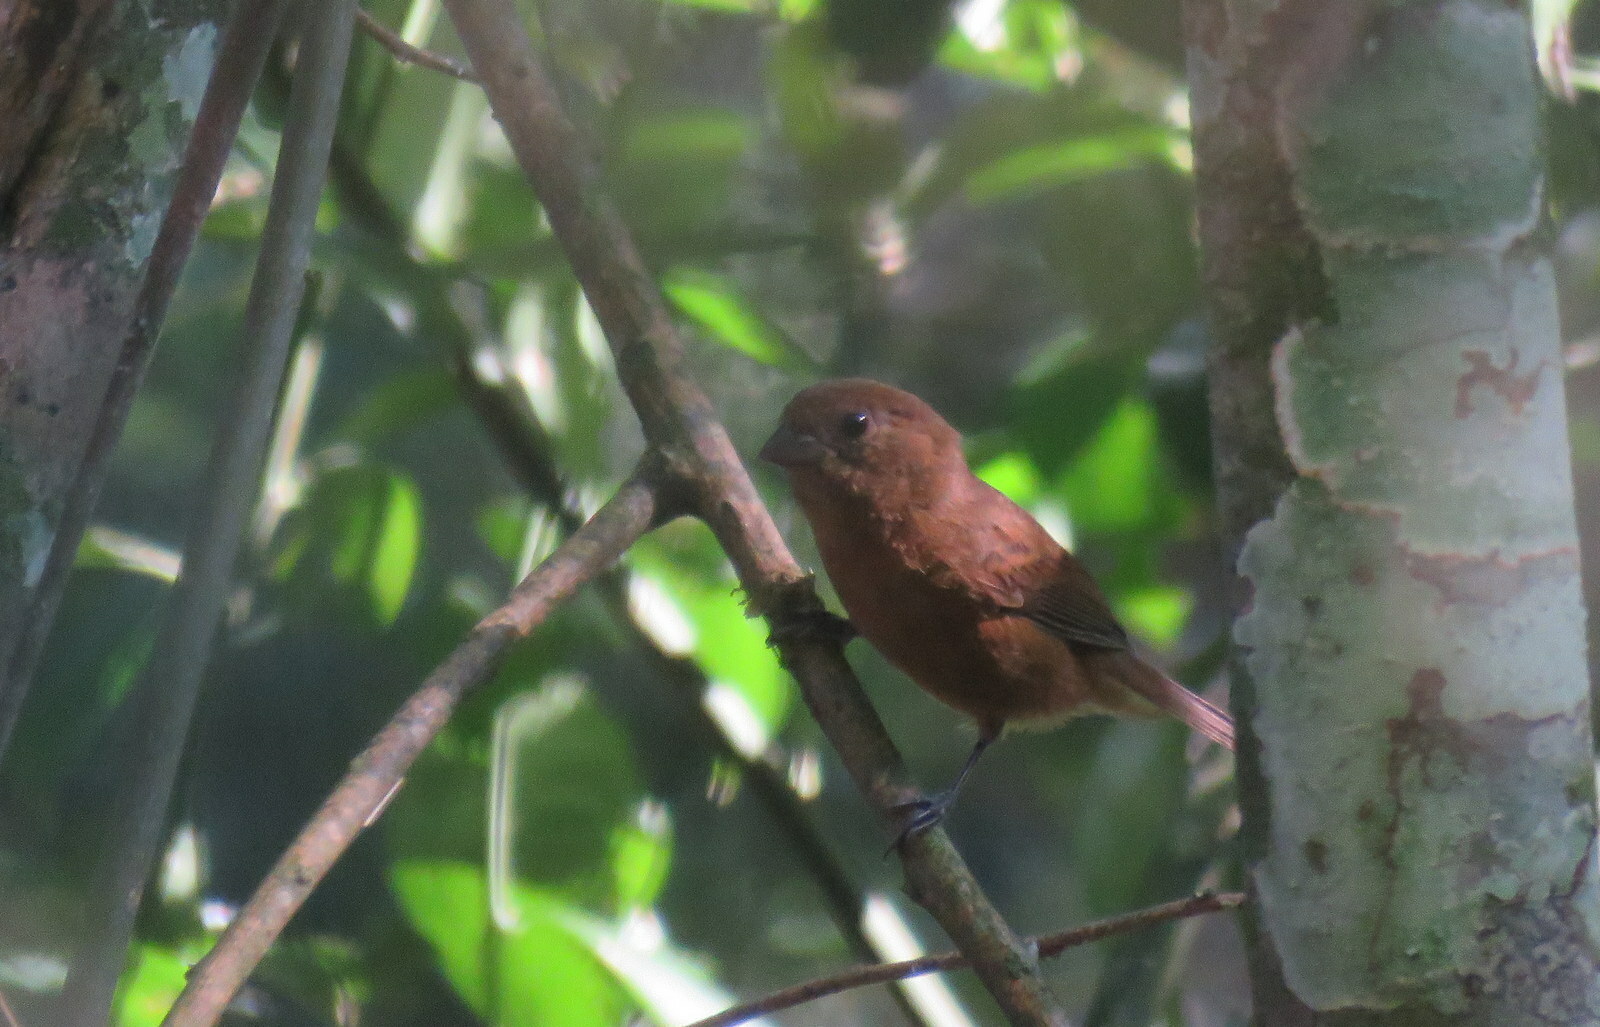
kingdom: Animalia
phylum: Chordata
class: Aves
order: Passeriformes
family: Cardinalidae
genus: Amaurospiza
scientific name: Amaurospiza moesta
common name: Blackish-blue seedeater
